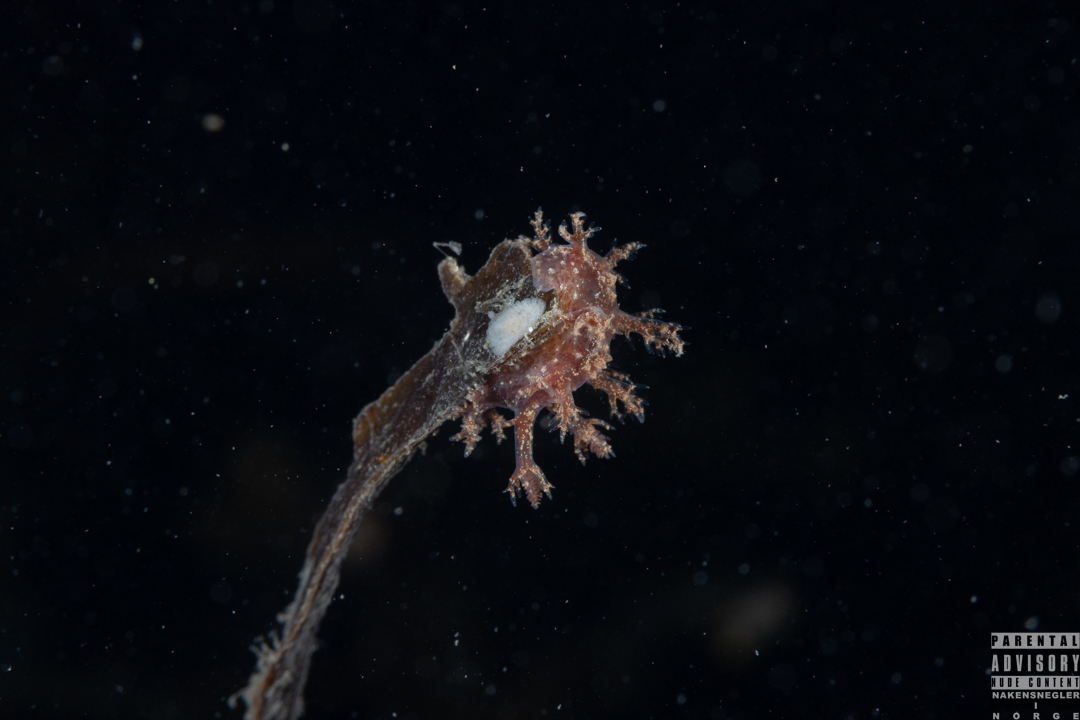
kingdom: Animalia
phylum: Mollusca
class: Gastropoda
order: Nudibranchia
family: Dendronotidae
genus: Dendronotus
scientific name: Dendronotus frondosus
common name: Bushy-backed nudibranch
